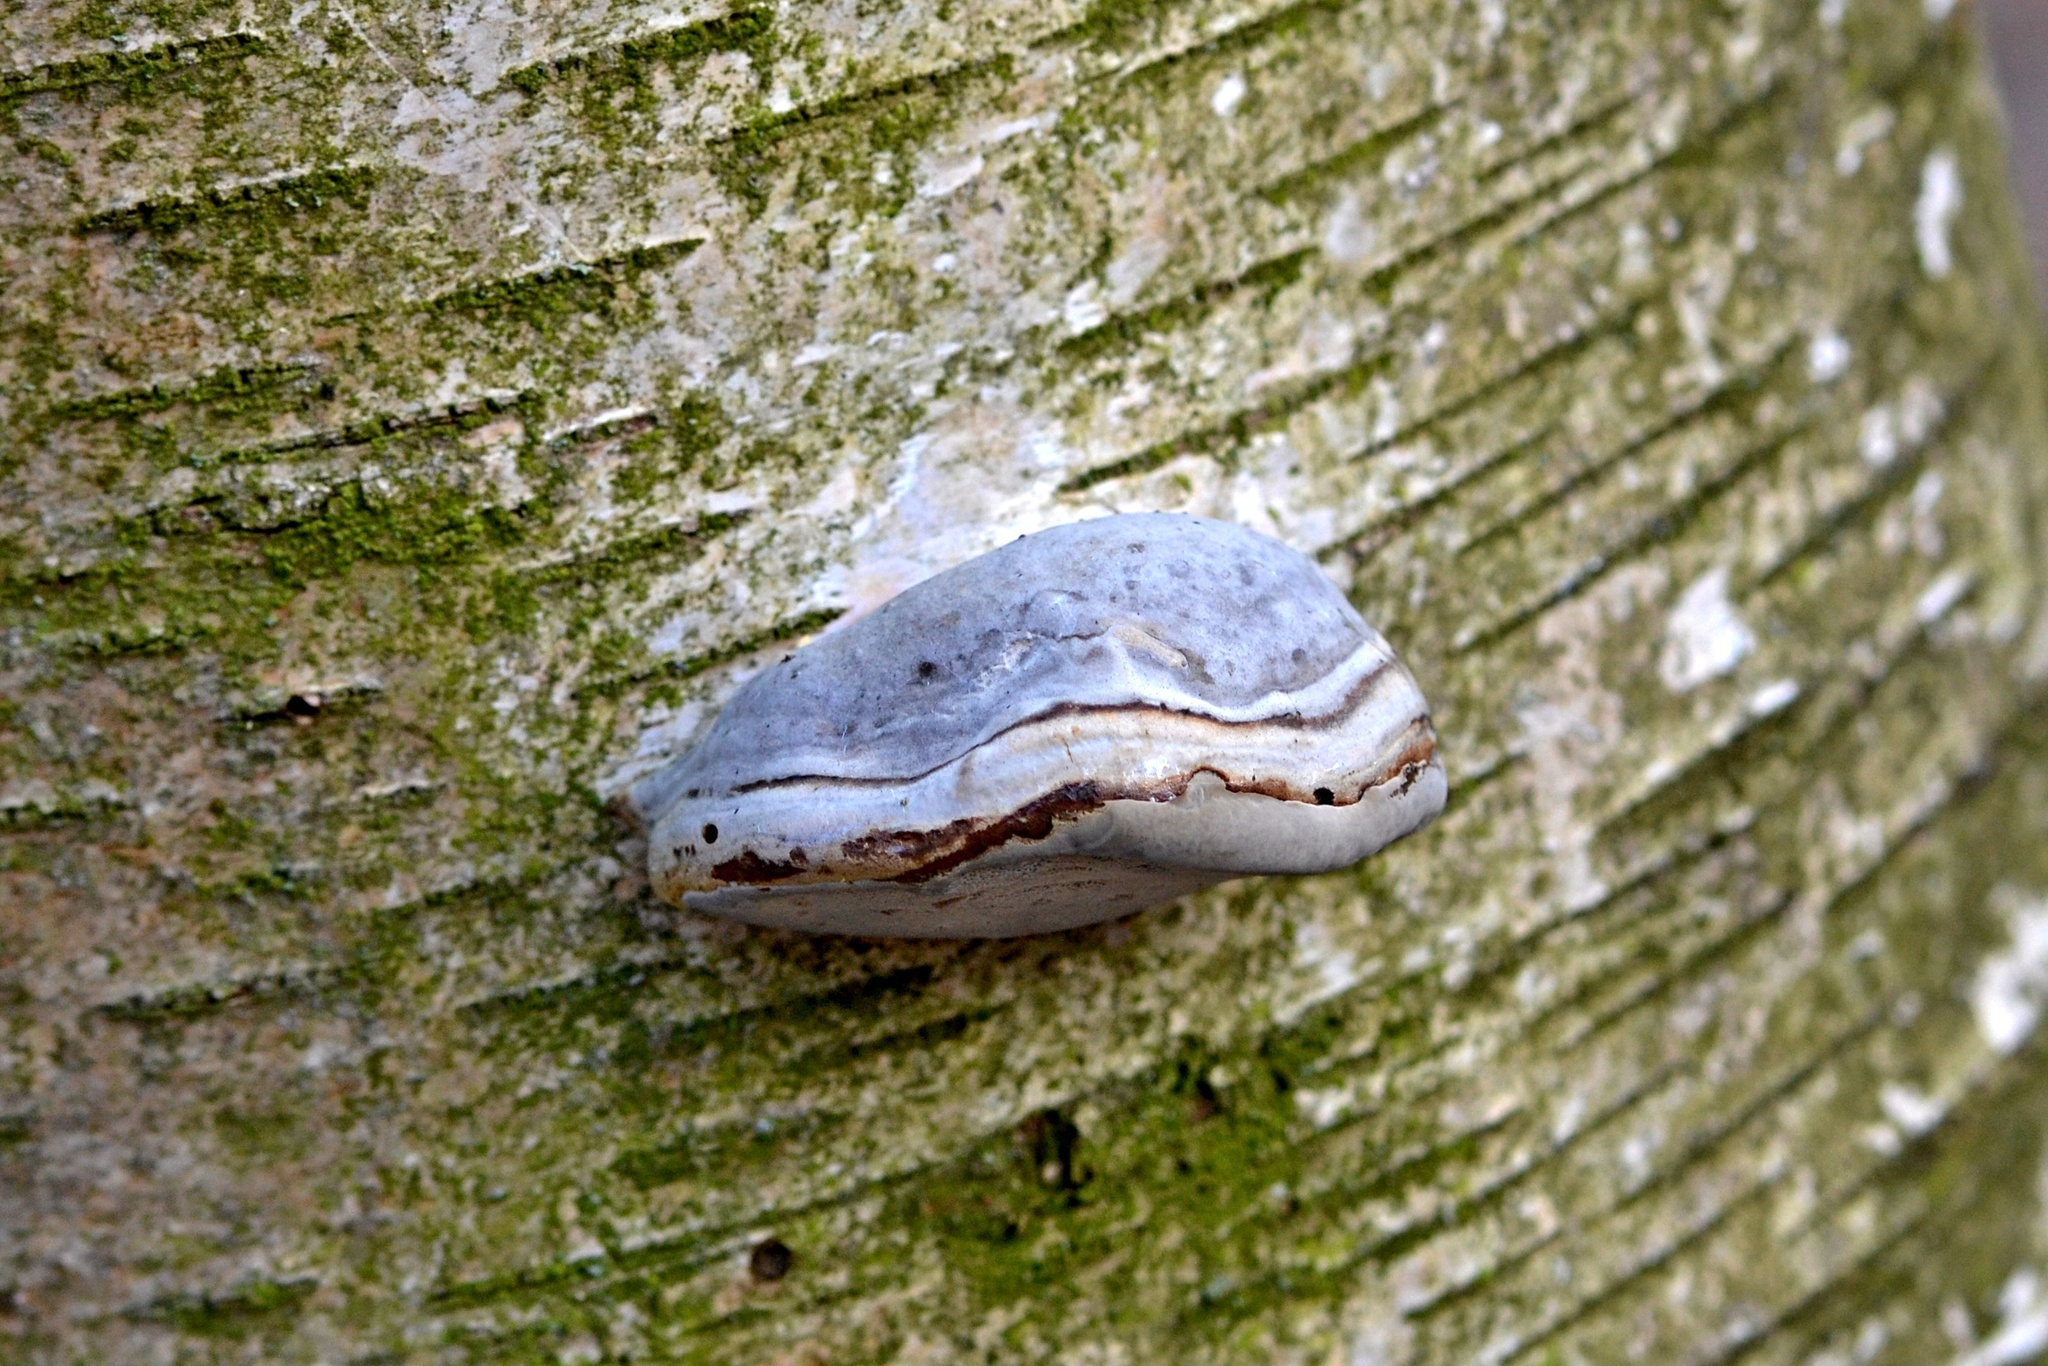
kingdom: Fungi
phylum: Basidiomycota
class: Agaricomycetes
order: Polyporales
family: Polyporaceae
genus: Fomes
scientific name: Fomes fomentarius
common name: Hoof fungus
